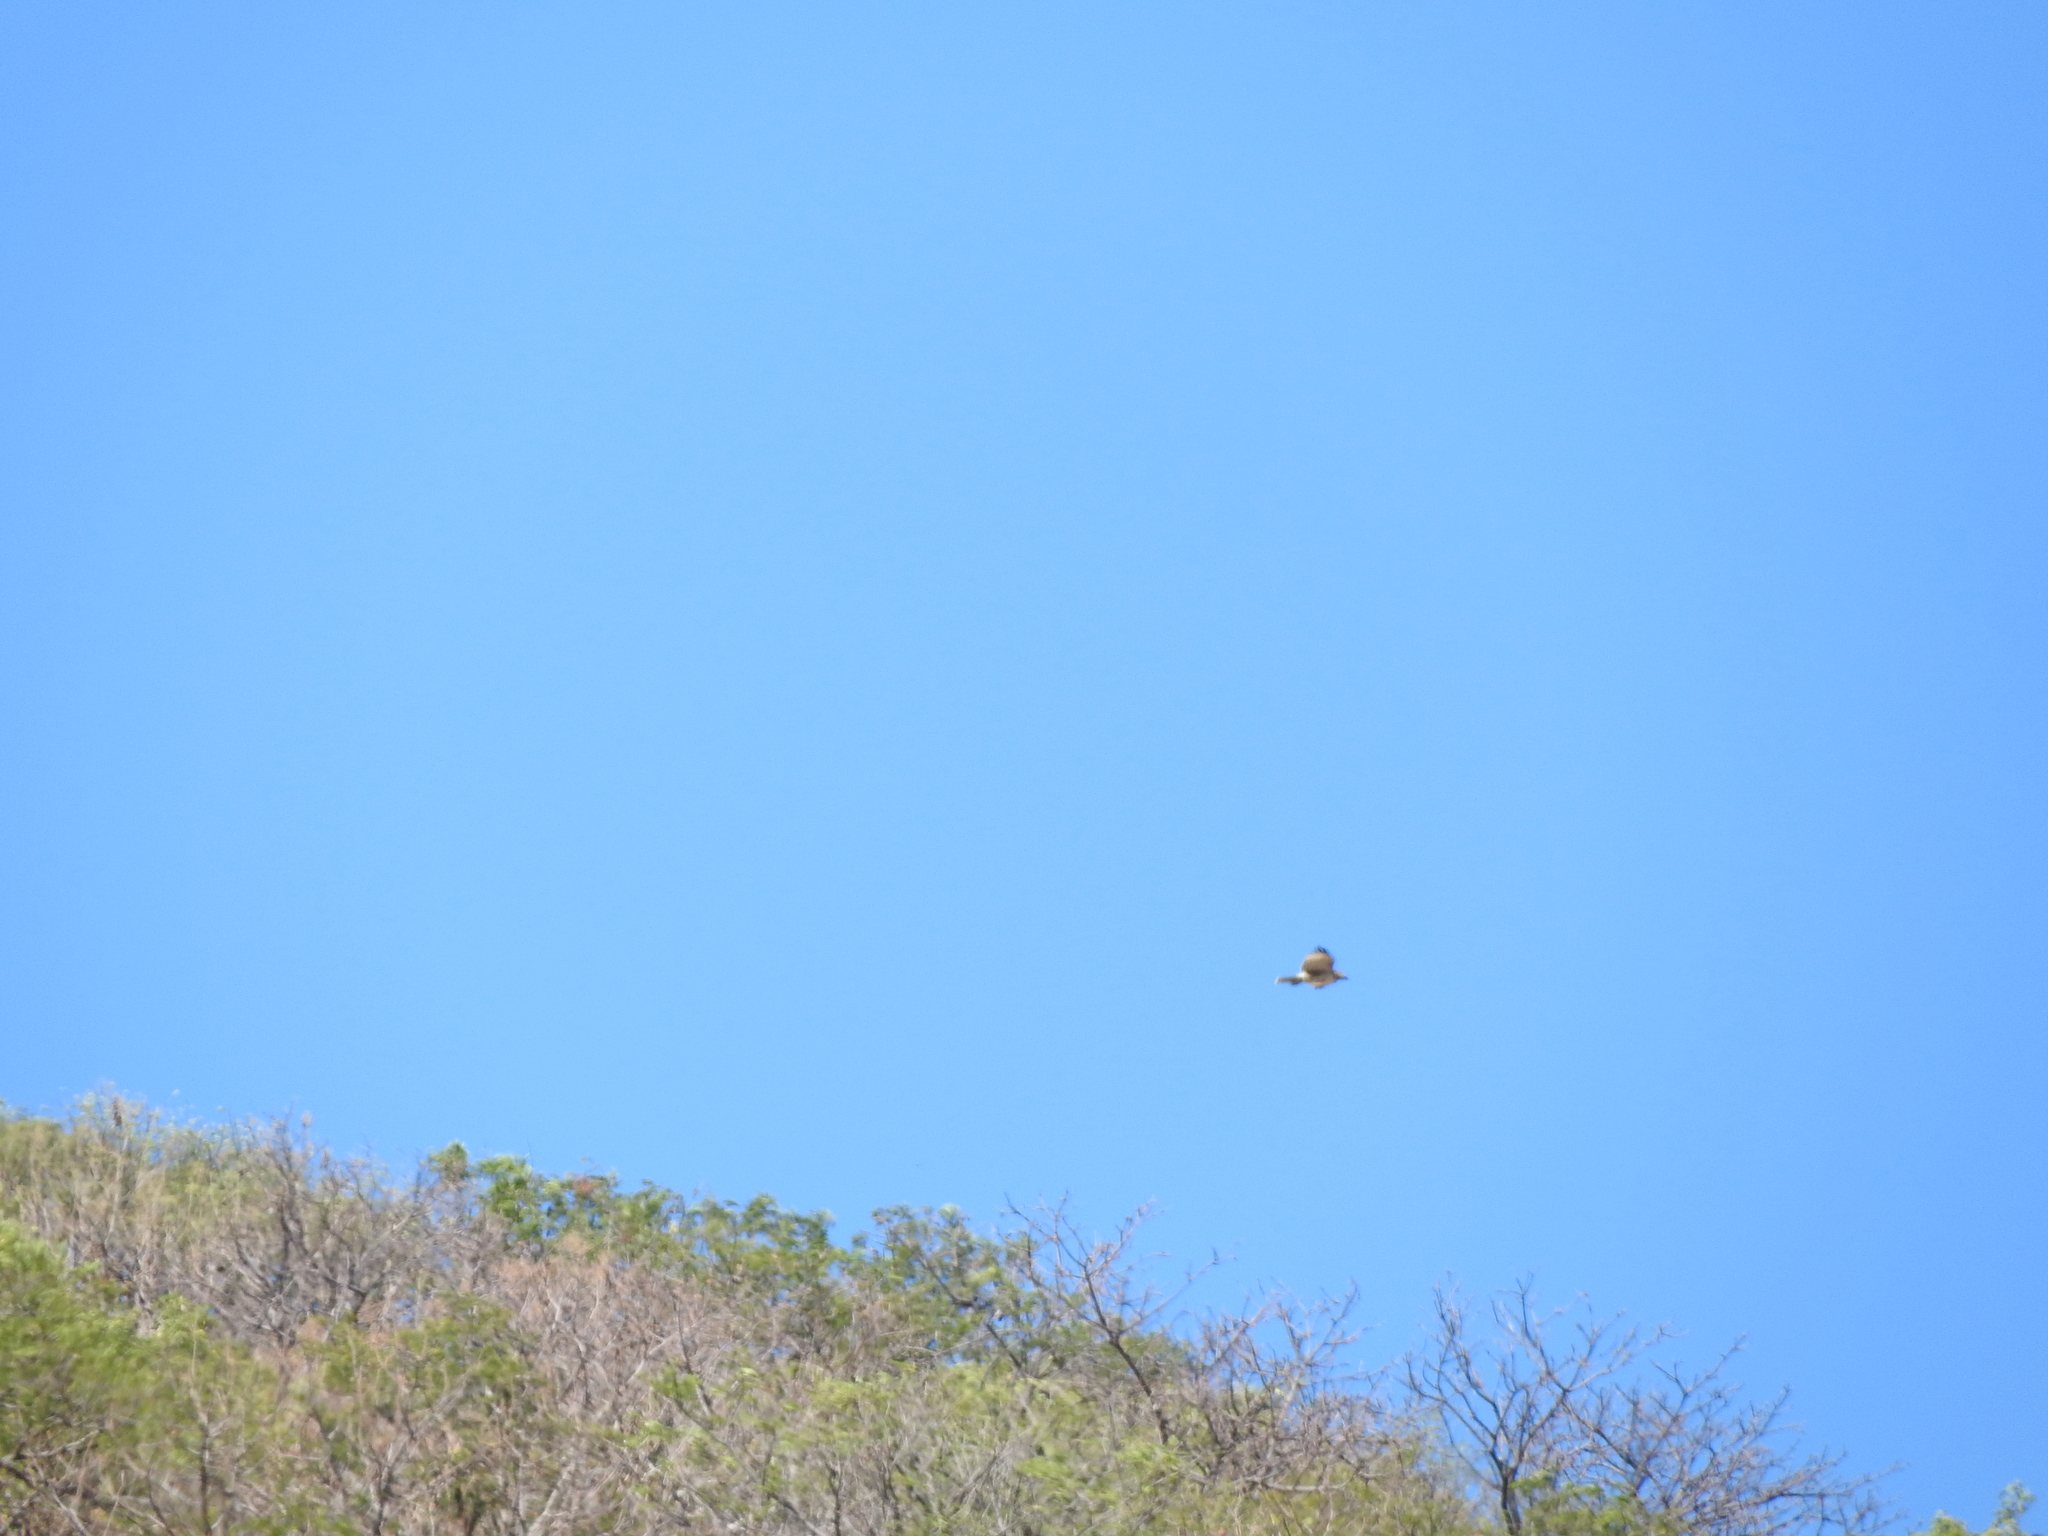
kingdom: Animalia
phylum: Chordata
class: Aves
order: Accipitriformes
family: Accipitridae
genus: Buteo
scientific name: Buteo jamaicensis
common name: Red-tailed hawk
